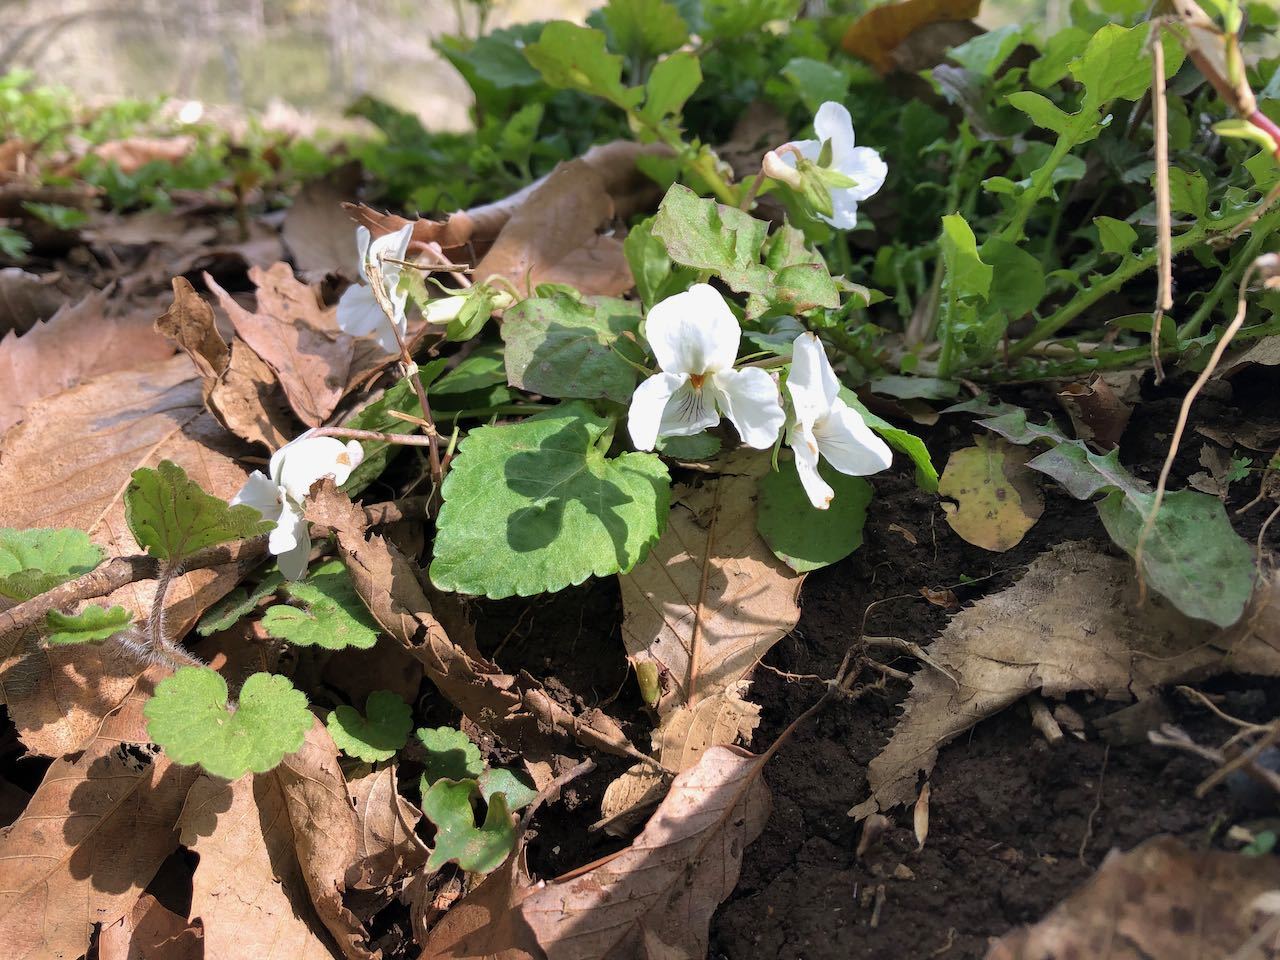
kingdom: Plantae
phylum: Tracheophyta
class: Magnoliopsida
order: Malpighiales
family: Violaceae
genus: Viola
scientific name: Viola keiskei
